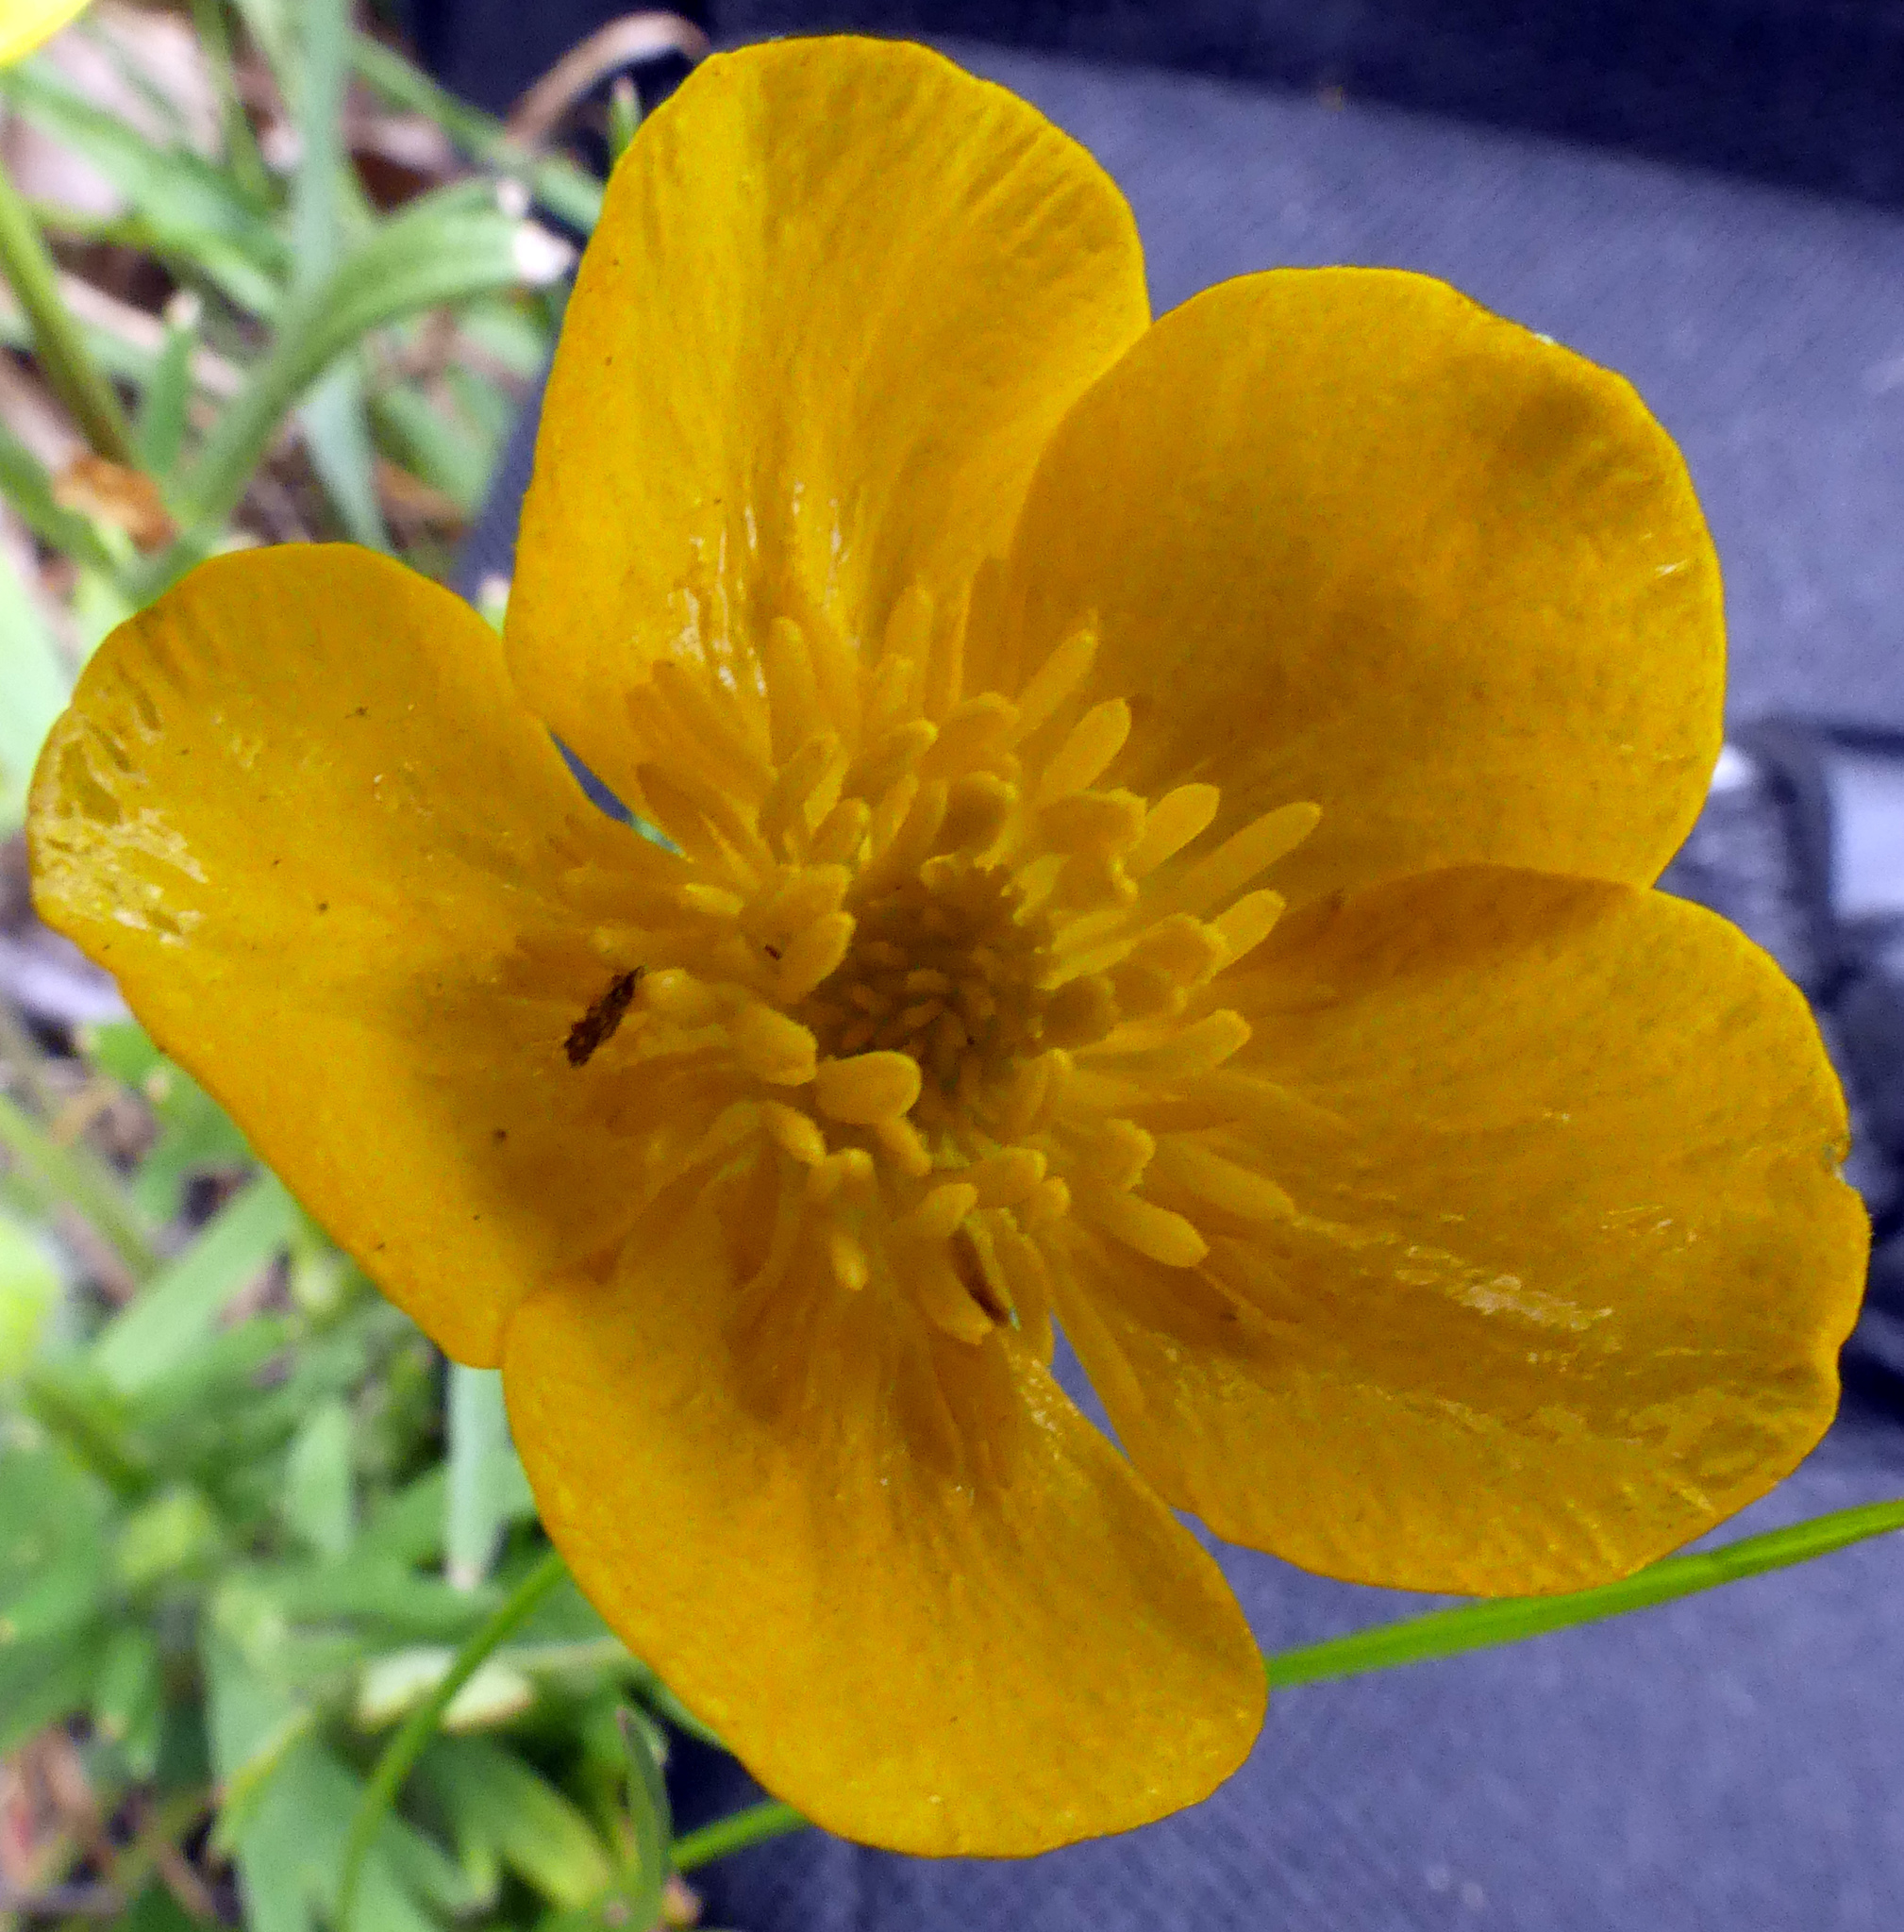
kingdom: Plantae
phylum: Tracheophyta
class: Magnoliopsida
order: Ranunculales
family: Ranunculaceae
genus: Ranunculus
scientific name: Ranunculus bulbosus
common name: Bulbous buttercup
